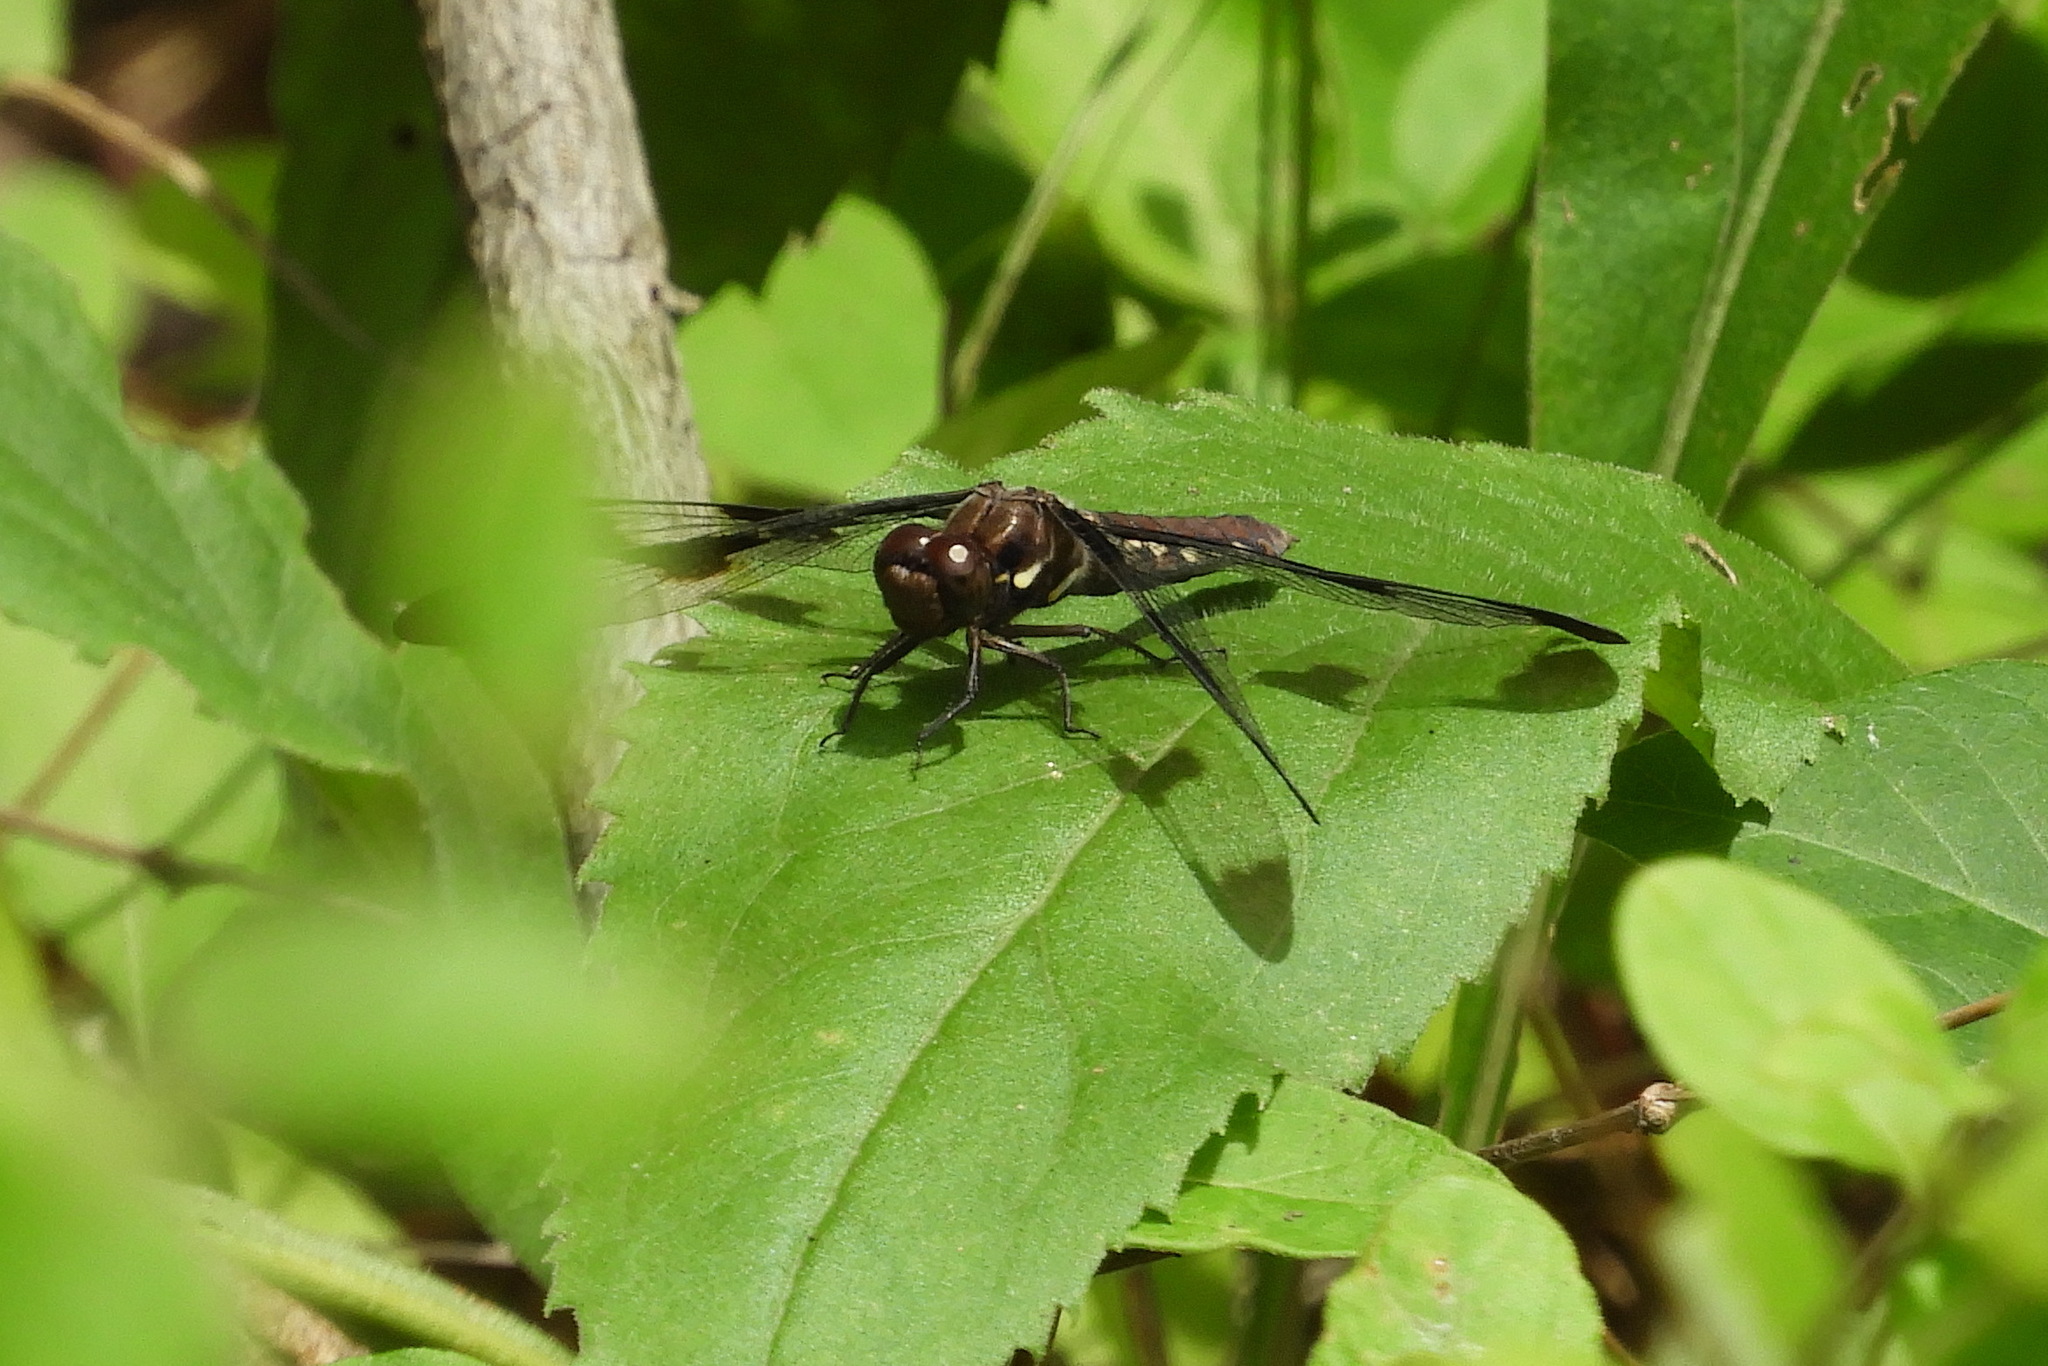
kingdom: Animalia
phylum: Arthropoda
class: Insecta
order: Odonata
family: Libellulidae
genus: Plathemis
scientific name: Plathemis lydia
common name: Common whitetail
